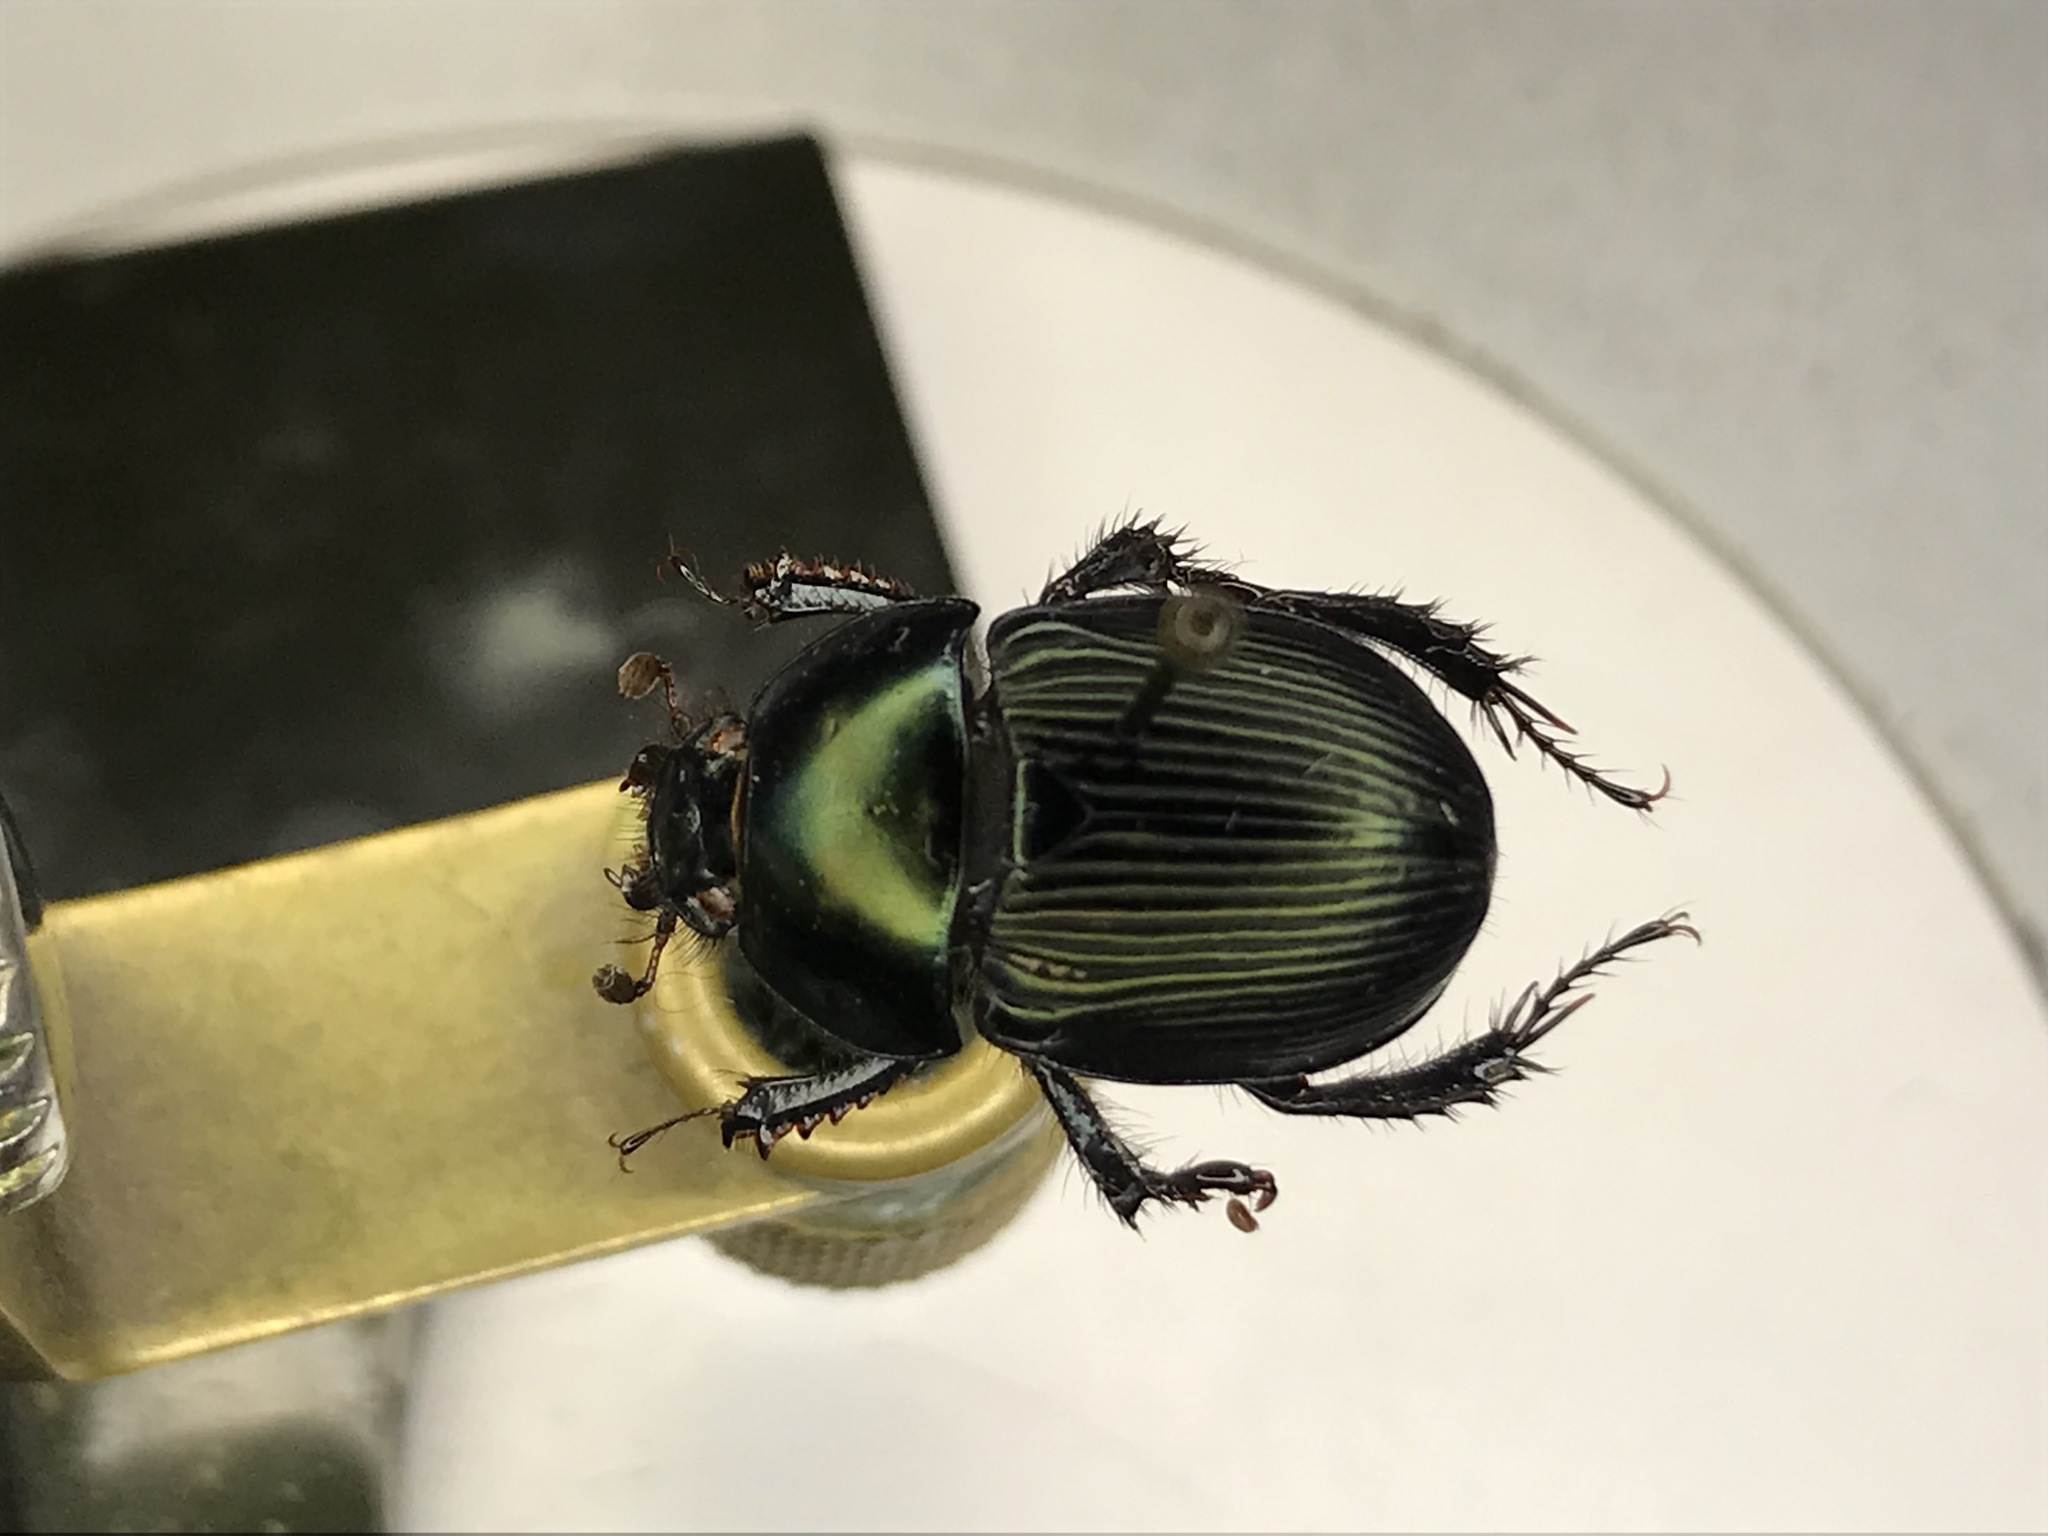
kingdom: Animalia
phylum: Arthropoda
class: Insecta
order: Coleoptera
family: Geotrupidae
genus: Cnemotrupes
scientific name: Cnemotrupes semiopacus
